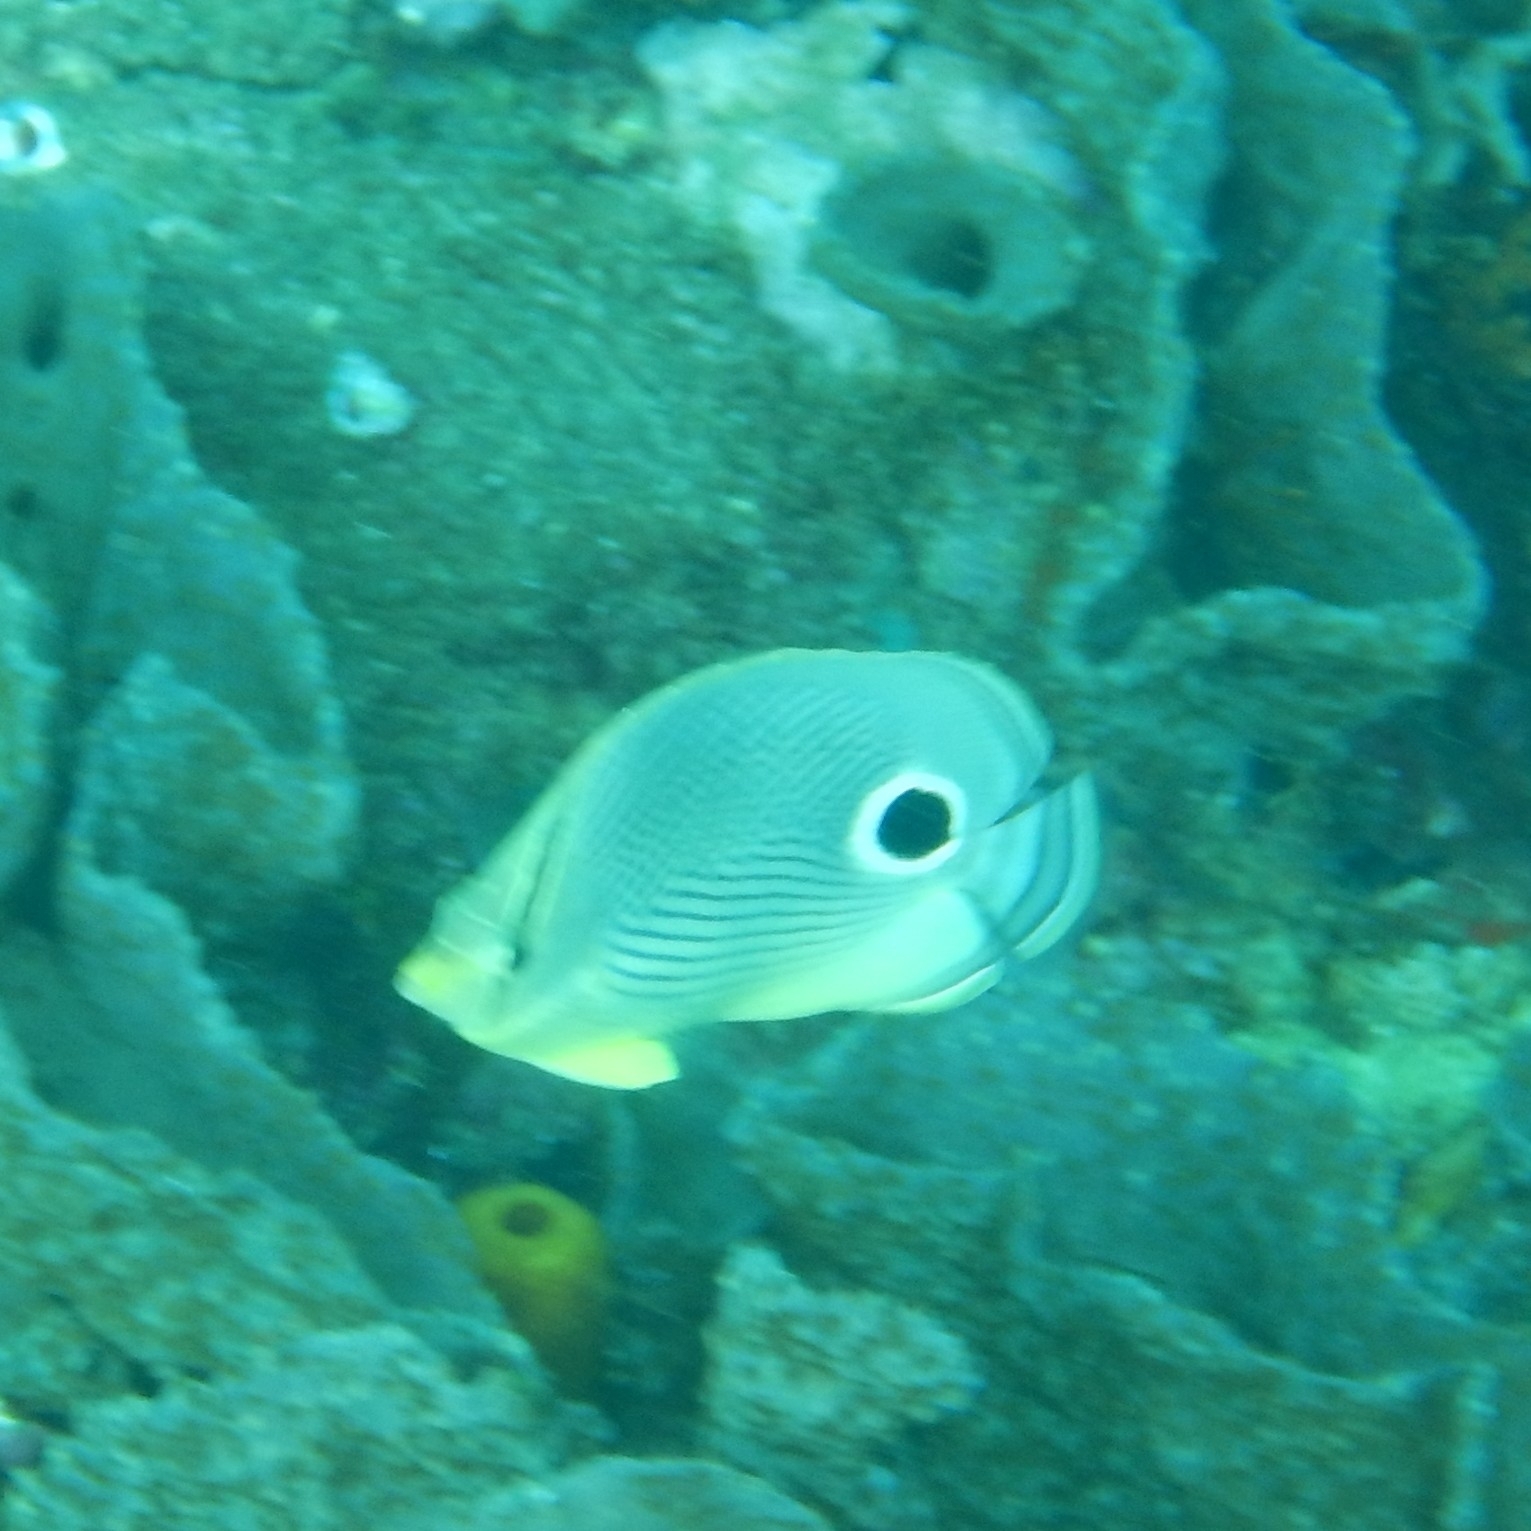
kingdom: Animalia
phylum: Chordata
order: Perciformes
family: Chaetodontidae
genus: Chaetodon
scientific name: Chaetodon capistratus
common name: Kete
